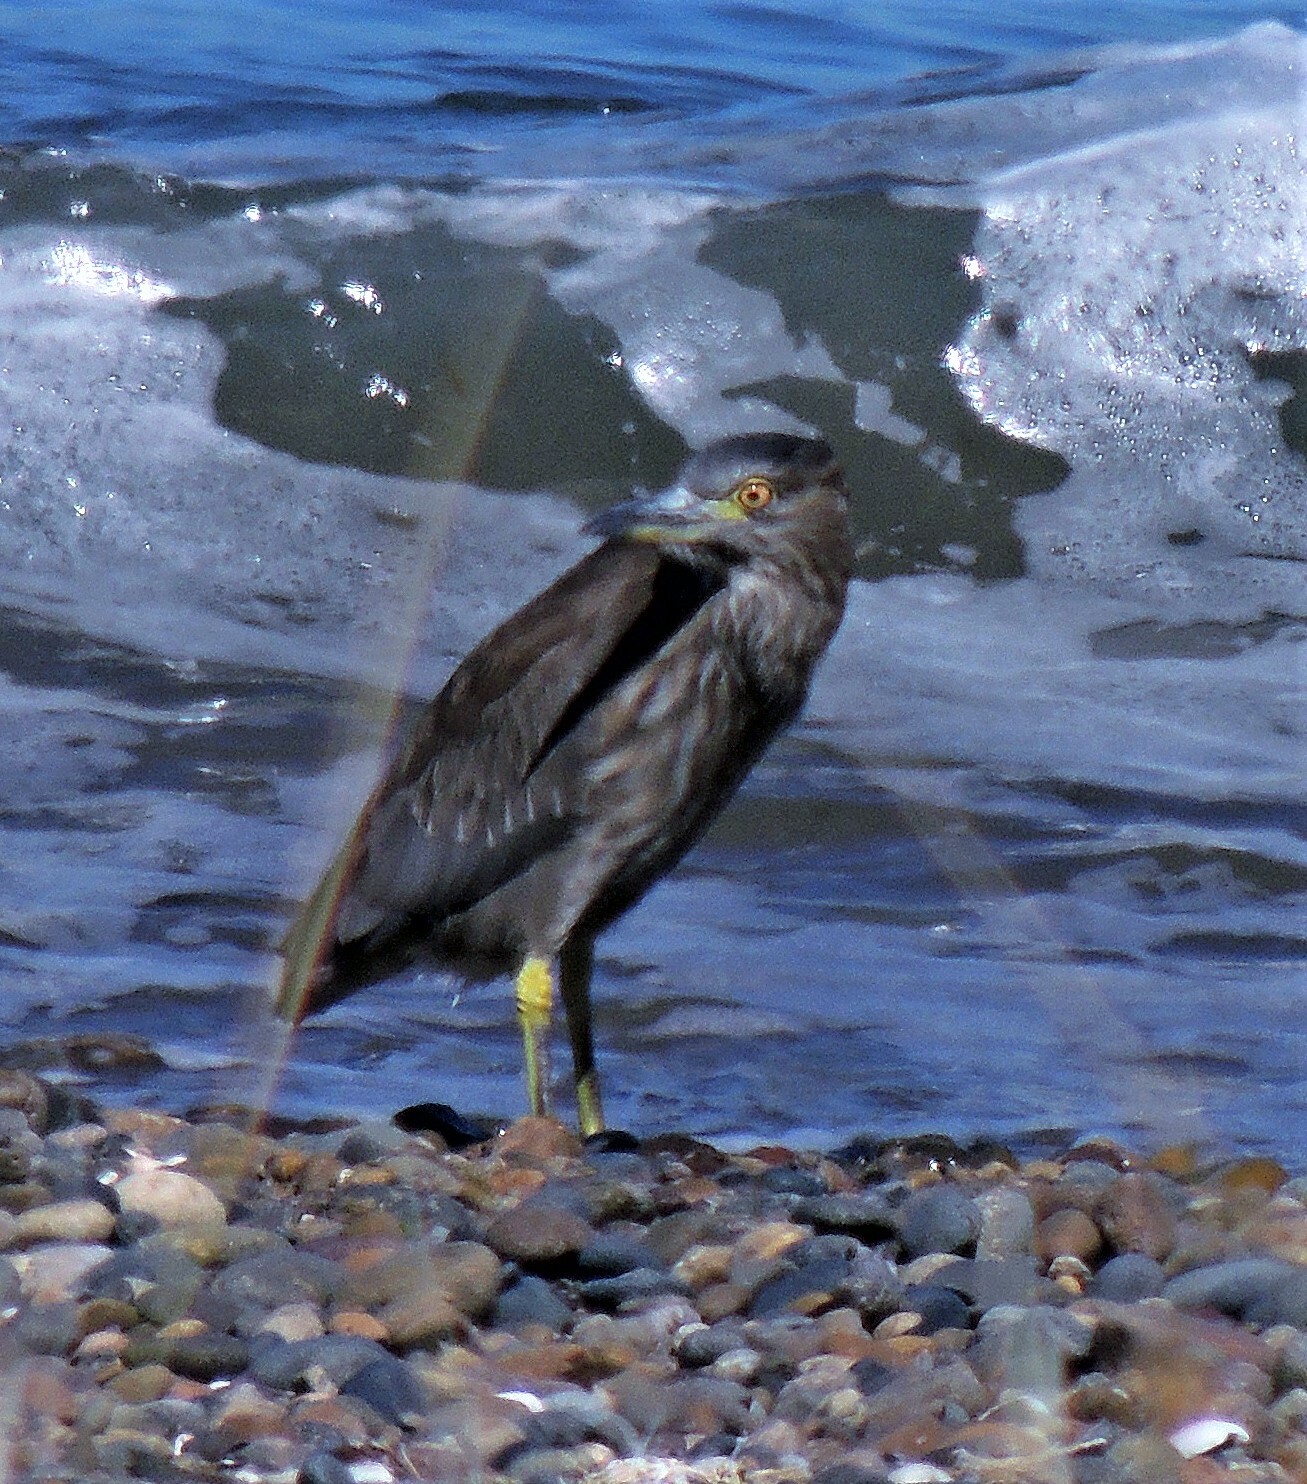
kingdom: Animalia
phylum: Chordata
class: Aves
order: Pelecaniformes
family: Ardeidae
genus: Nycticorax
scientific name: Nycticorax nycticorax
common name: Black-crowned night heron
